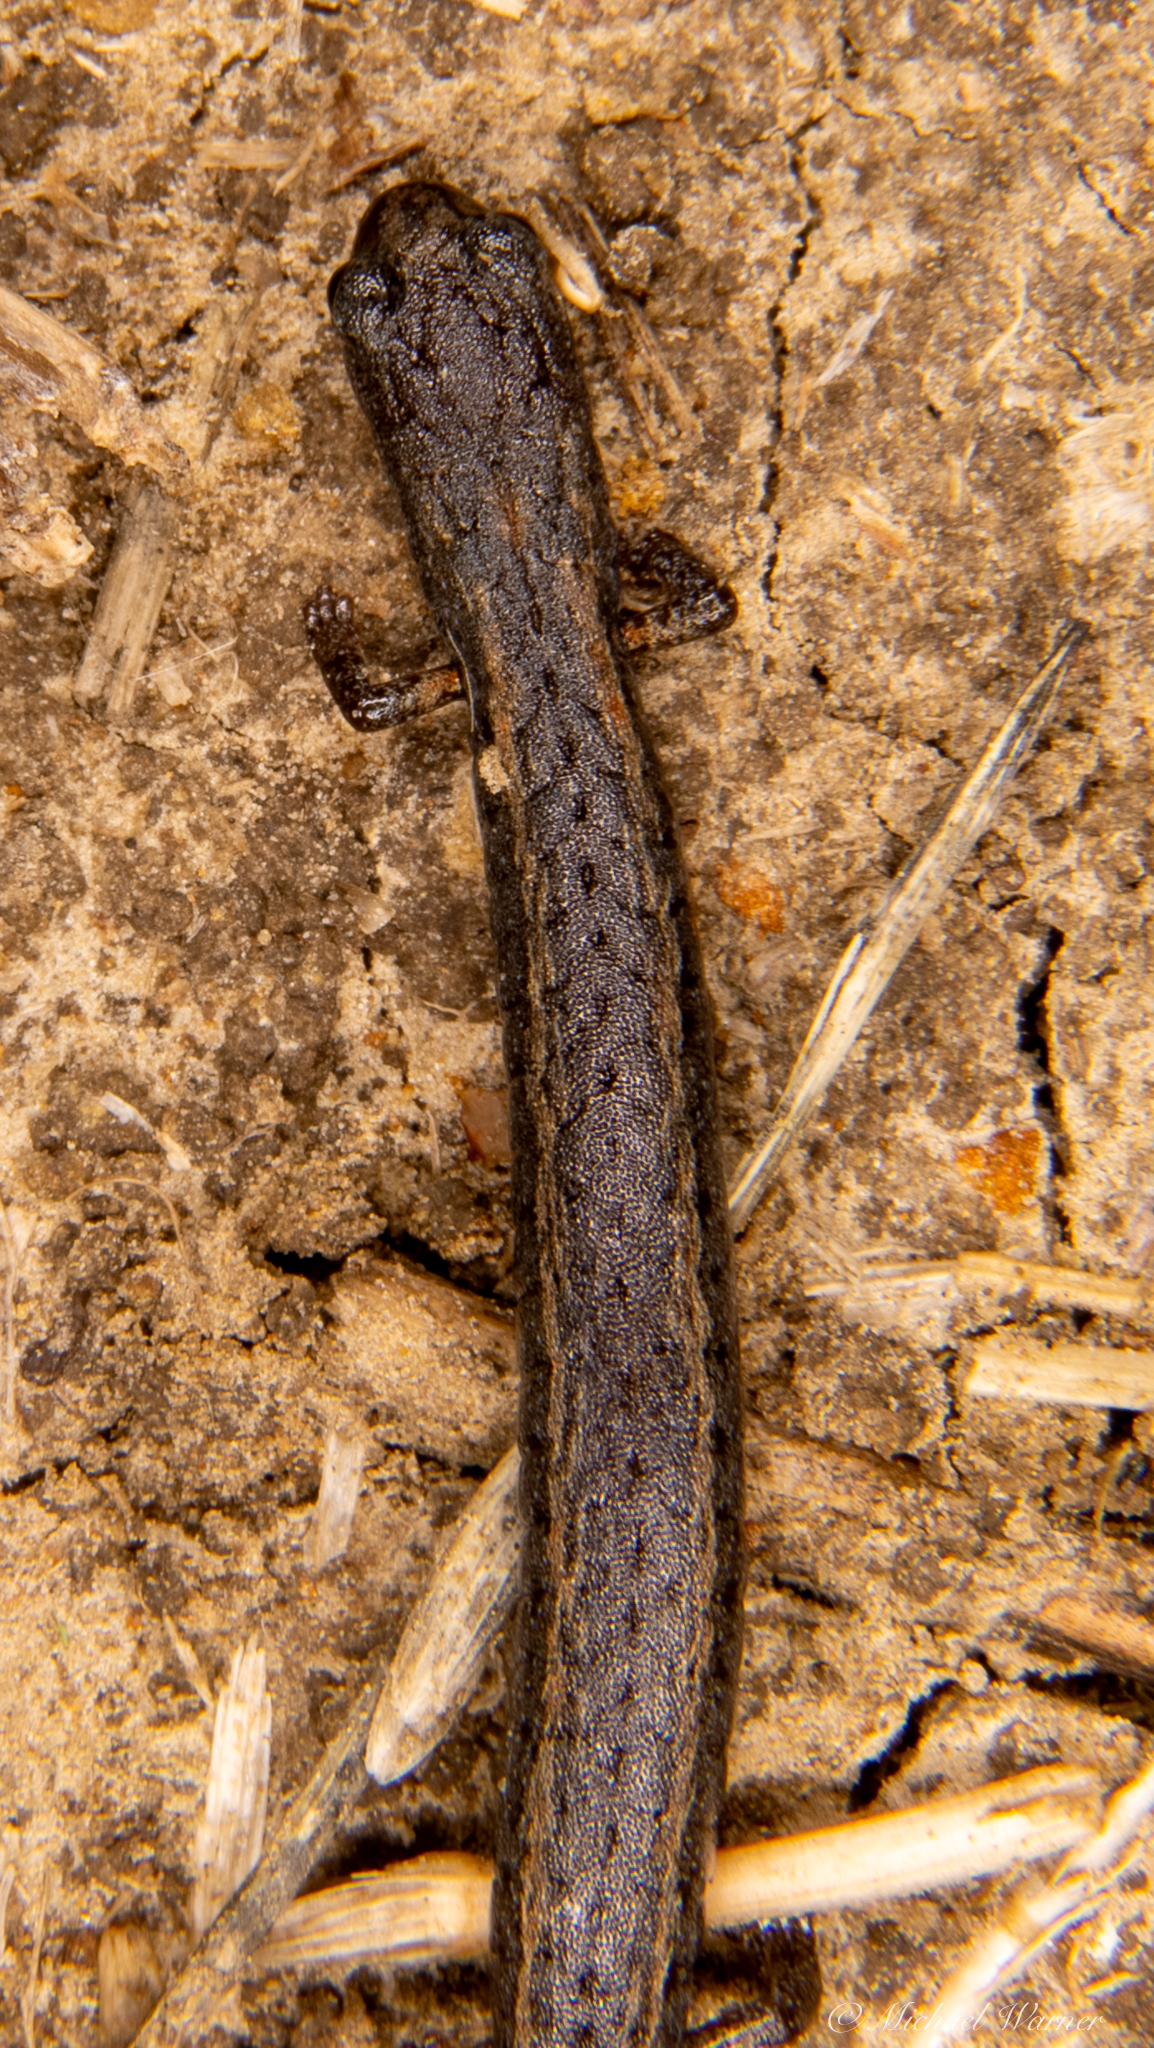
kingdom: Animalia
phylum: Chordata
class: Amphibia
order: Caudata
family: Plethodontidae
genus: Batrachoseps
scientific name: Batrachoseps attenuatus
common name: California slender salamander
